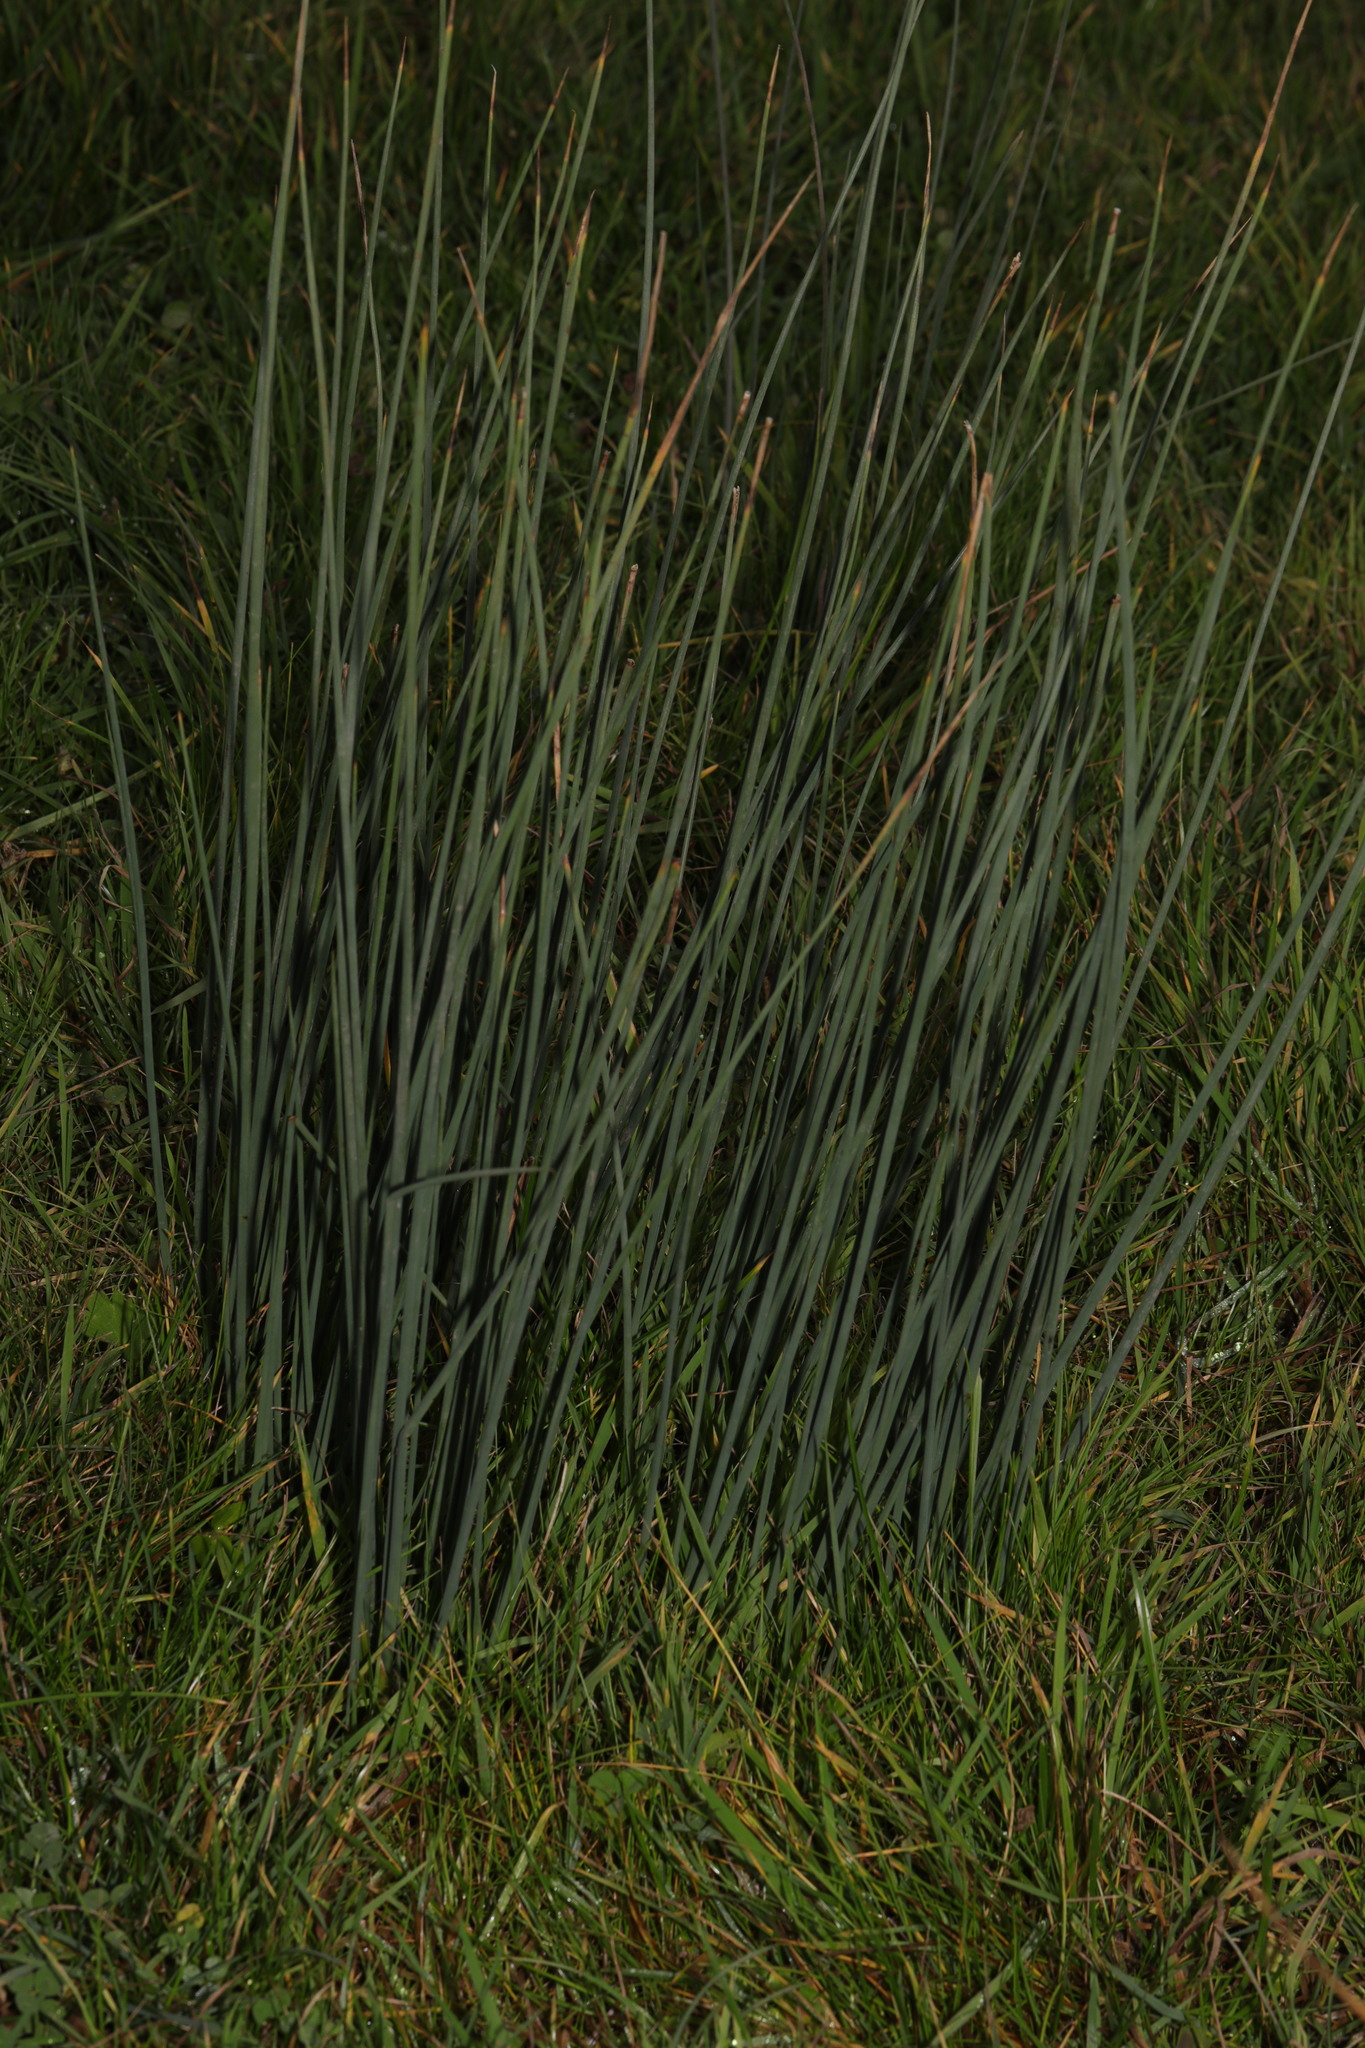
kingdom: Plantae
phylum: Tracheophyta
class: Liliopsida
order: Poales
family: Juncaceae
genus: Juncus
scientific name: Juncus inflexus
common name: Hard rush
